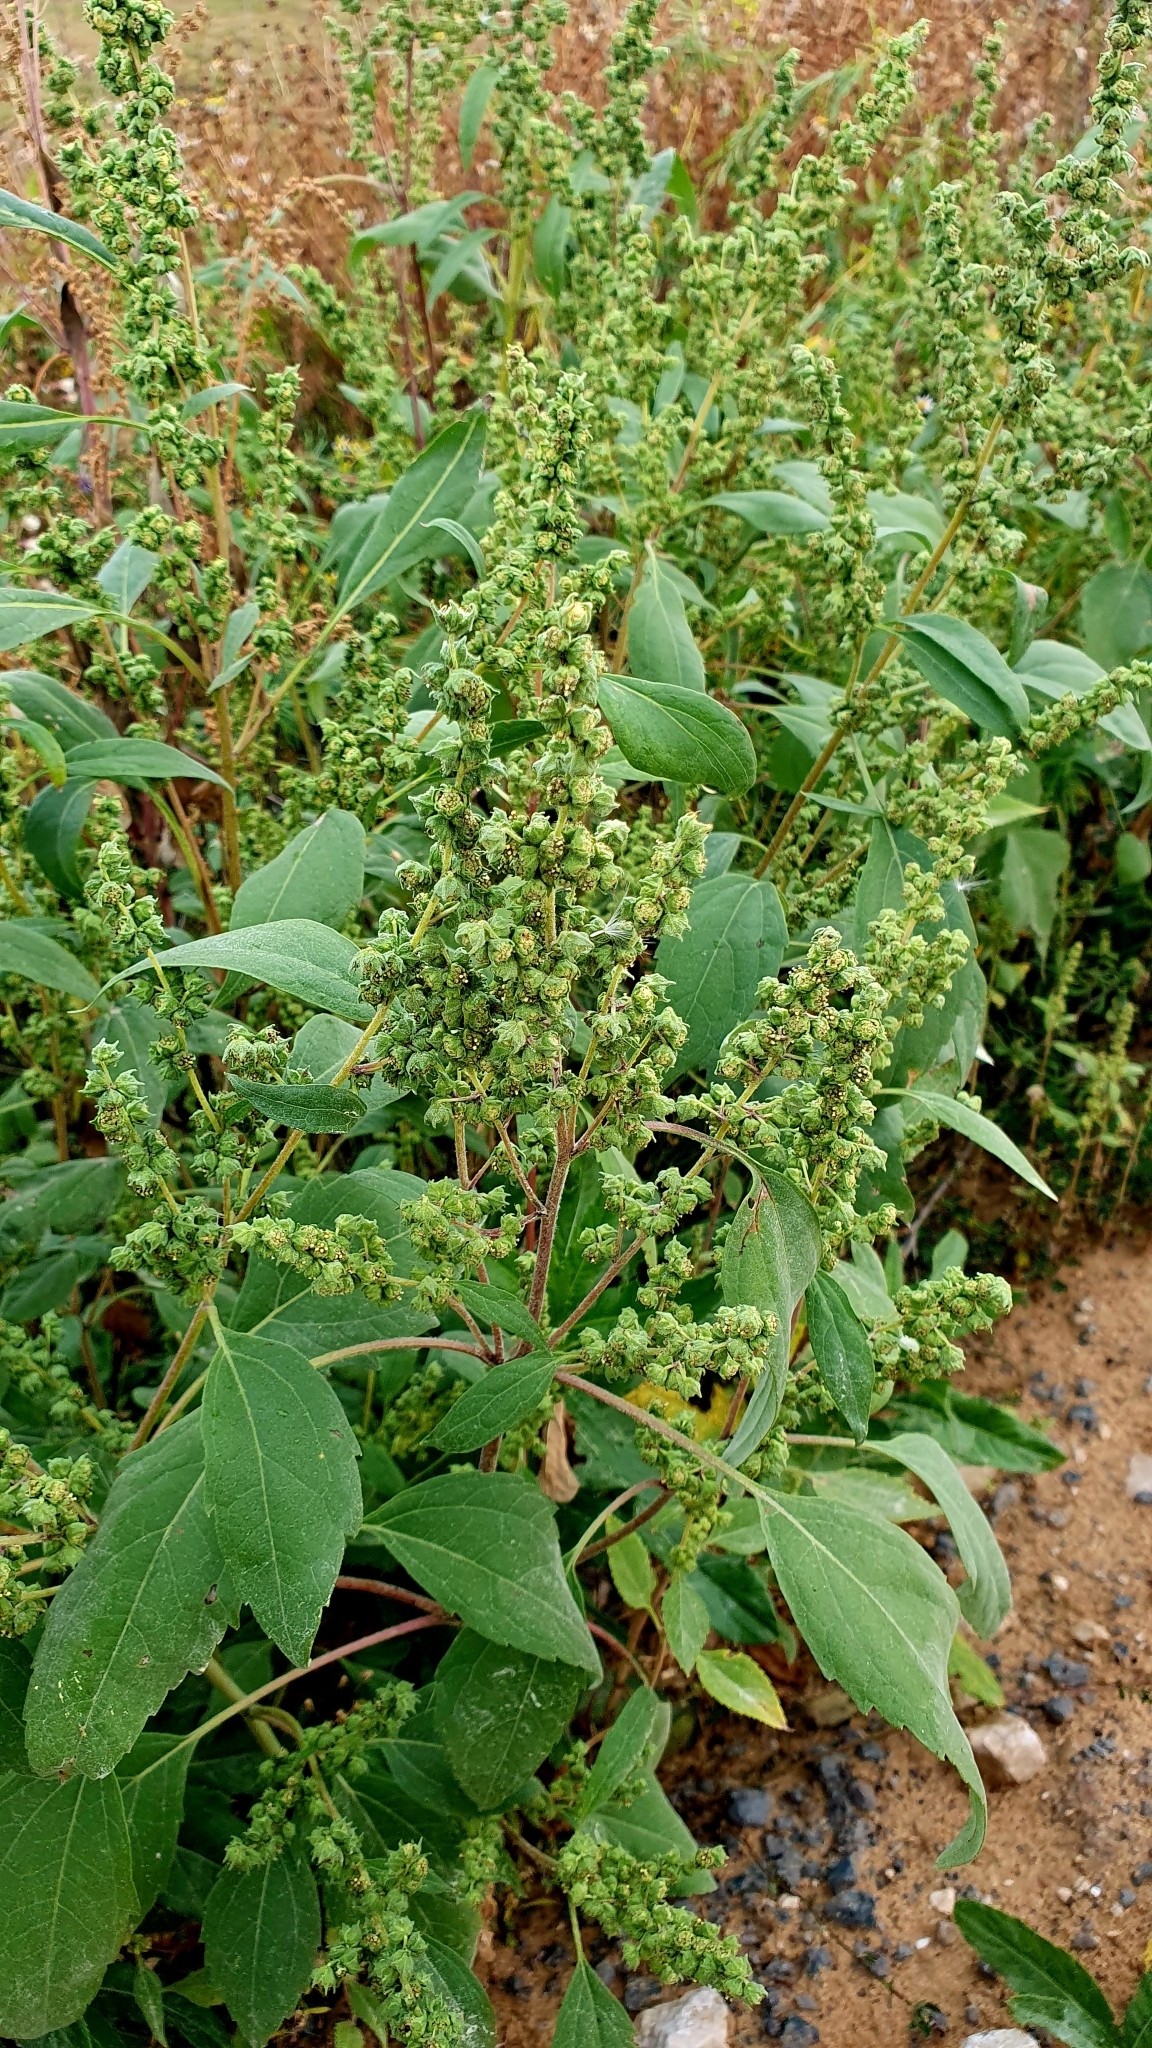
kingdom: Plantae
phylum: Tracheophyta
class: Magnoliopsida
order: Asterales
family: Asteraceae
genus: Cyclachaena
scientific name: Cyclachaena xanthiifolia
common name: Giant sumpweed
